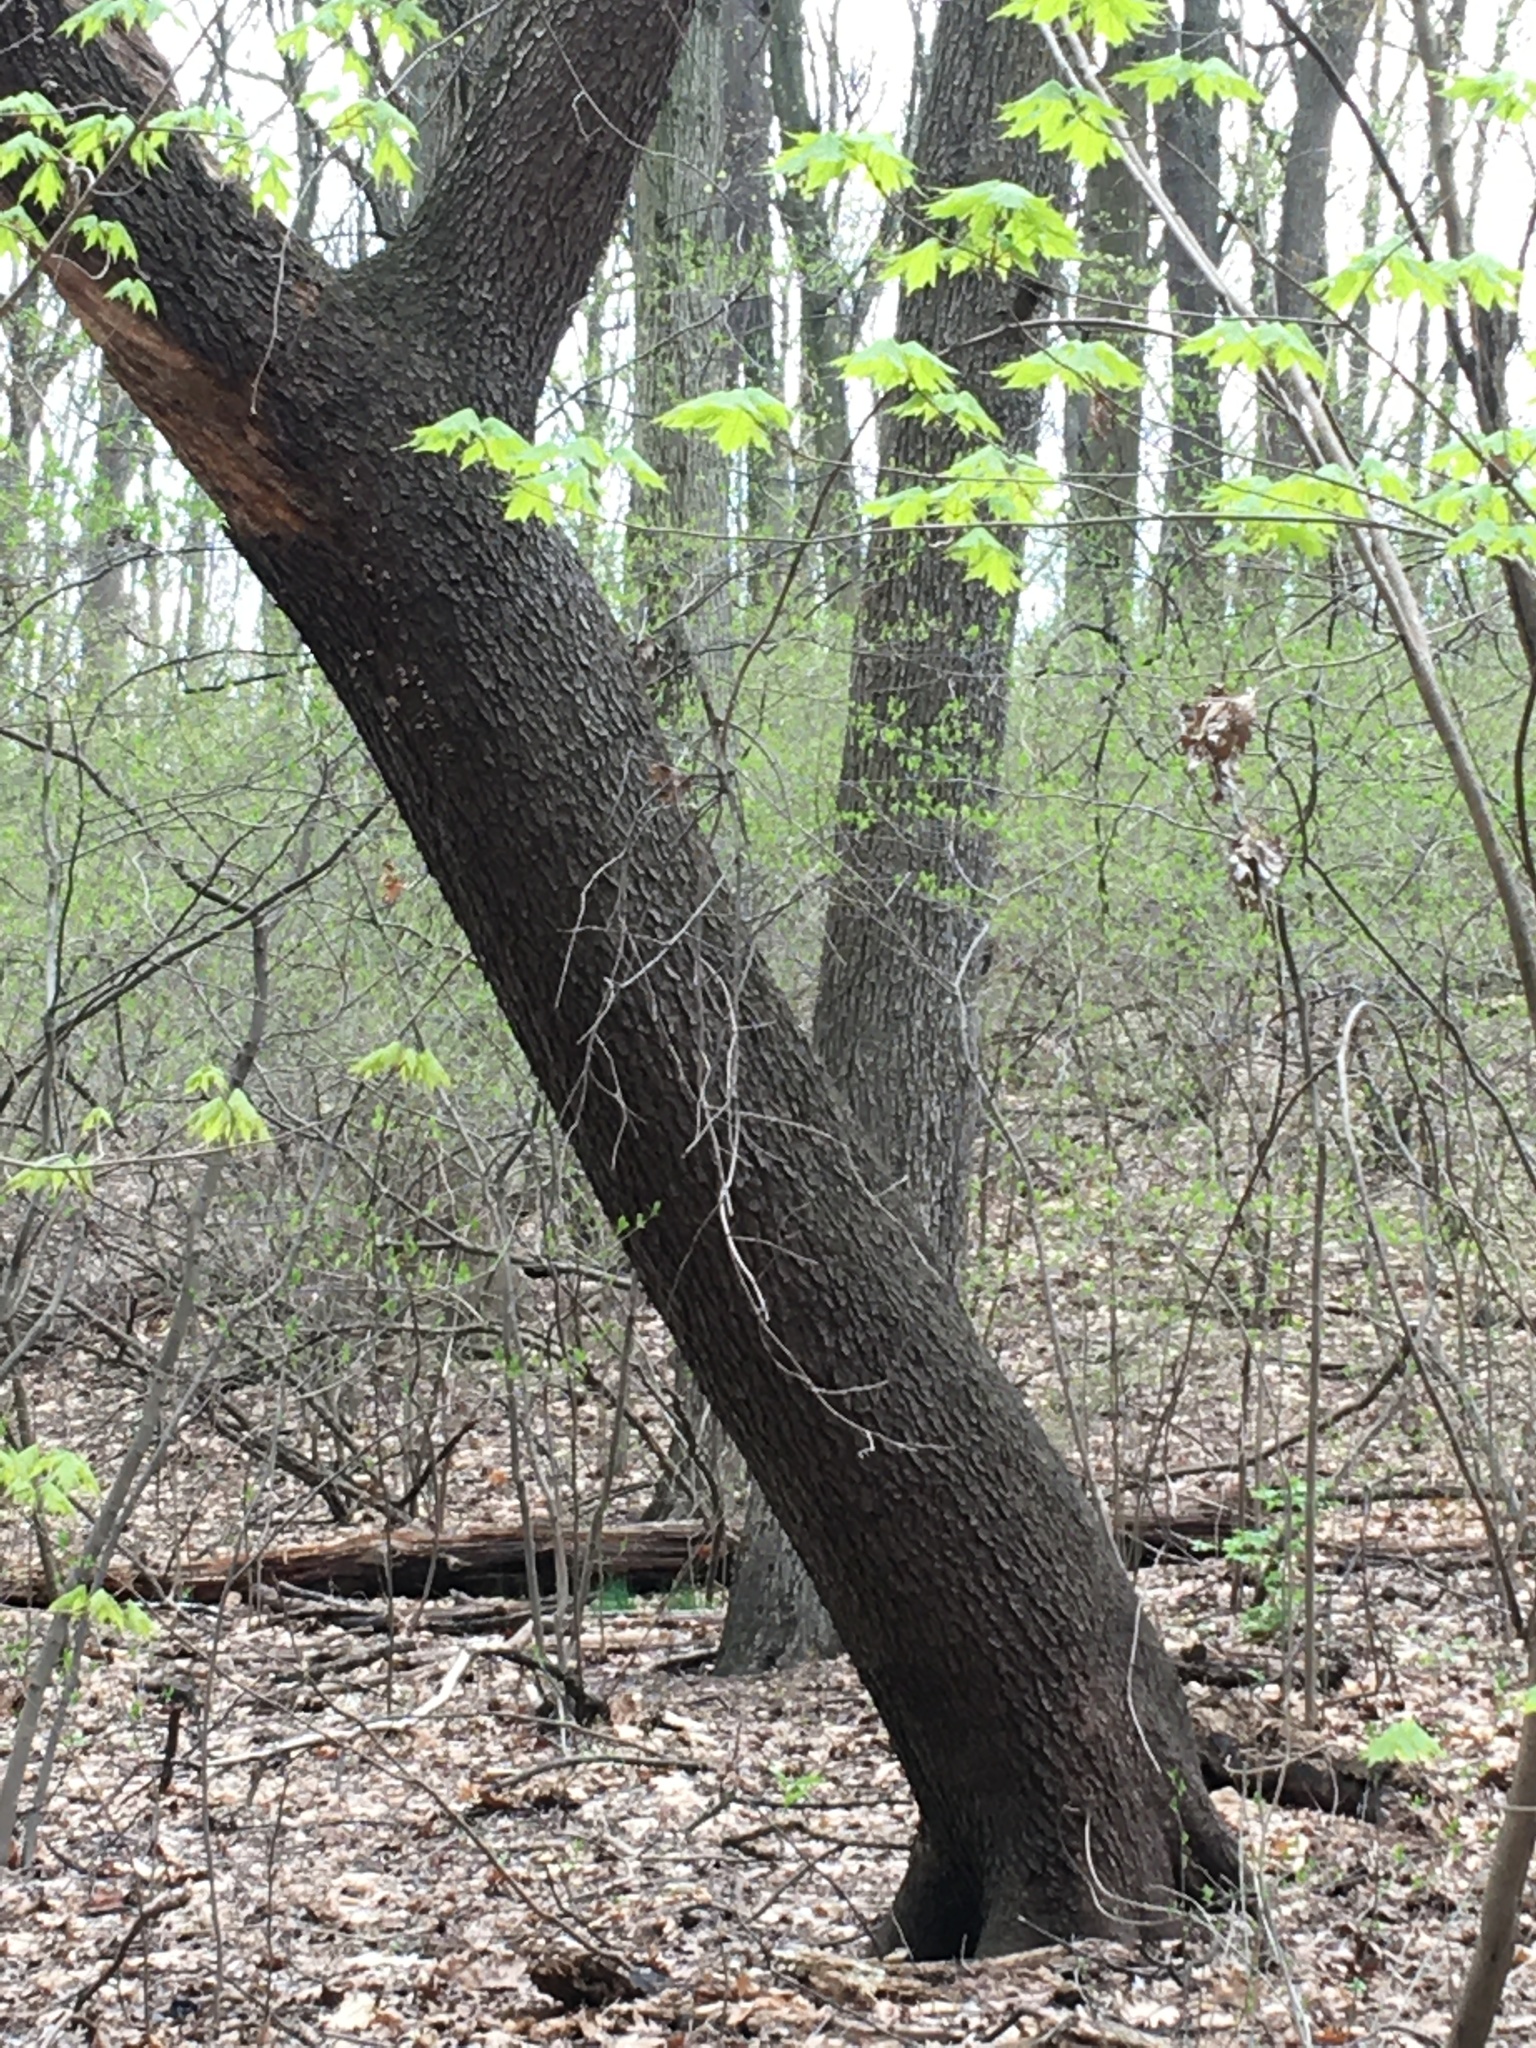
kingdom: Plantae
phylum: Tracheophyta
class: Magnoliopsida
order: Rosales
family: Rosaceae
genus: Prunus
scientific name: Prunus serotina
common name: Black cherry
